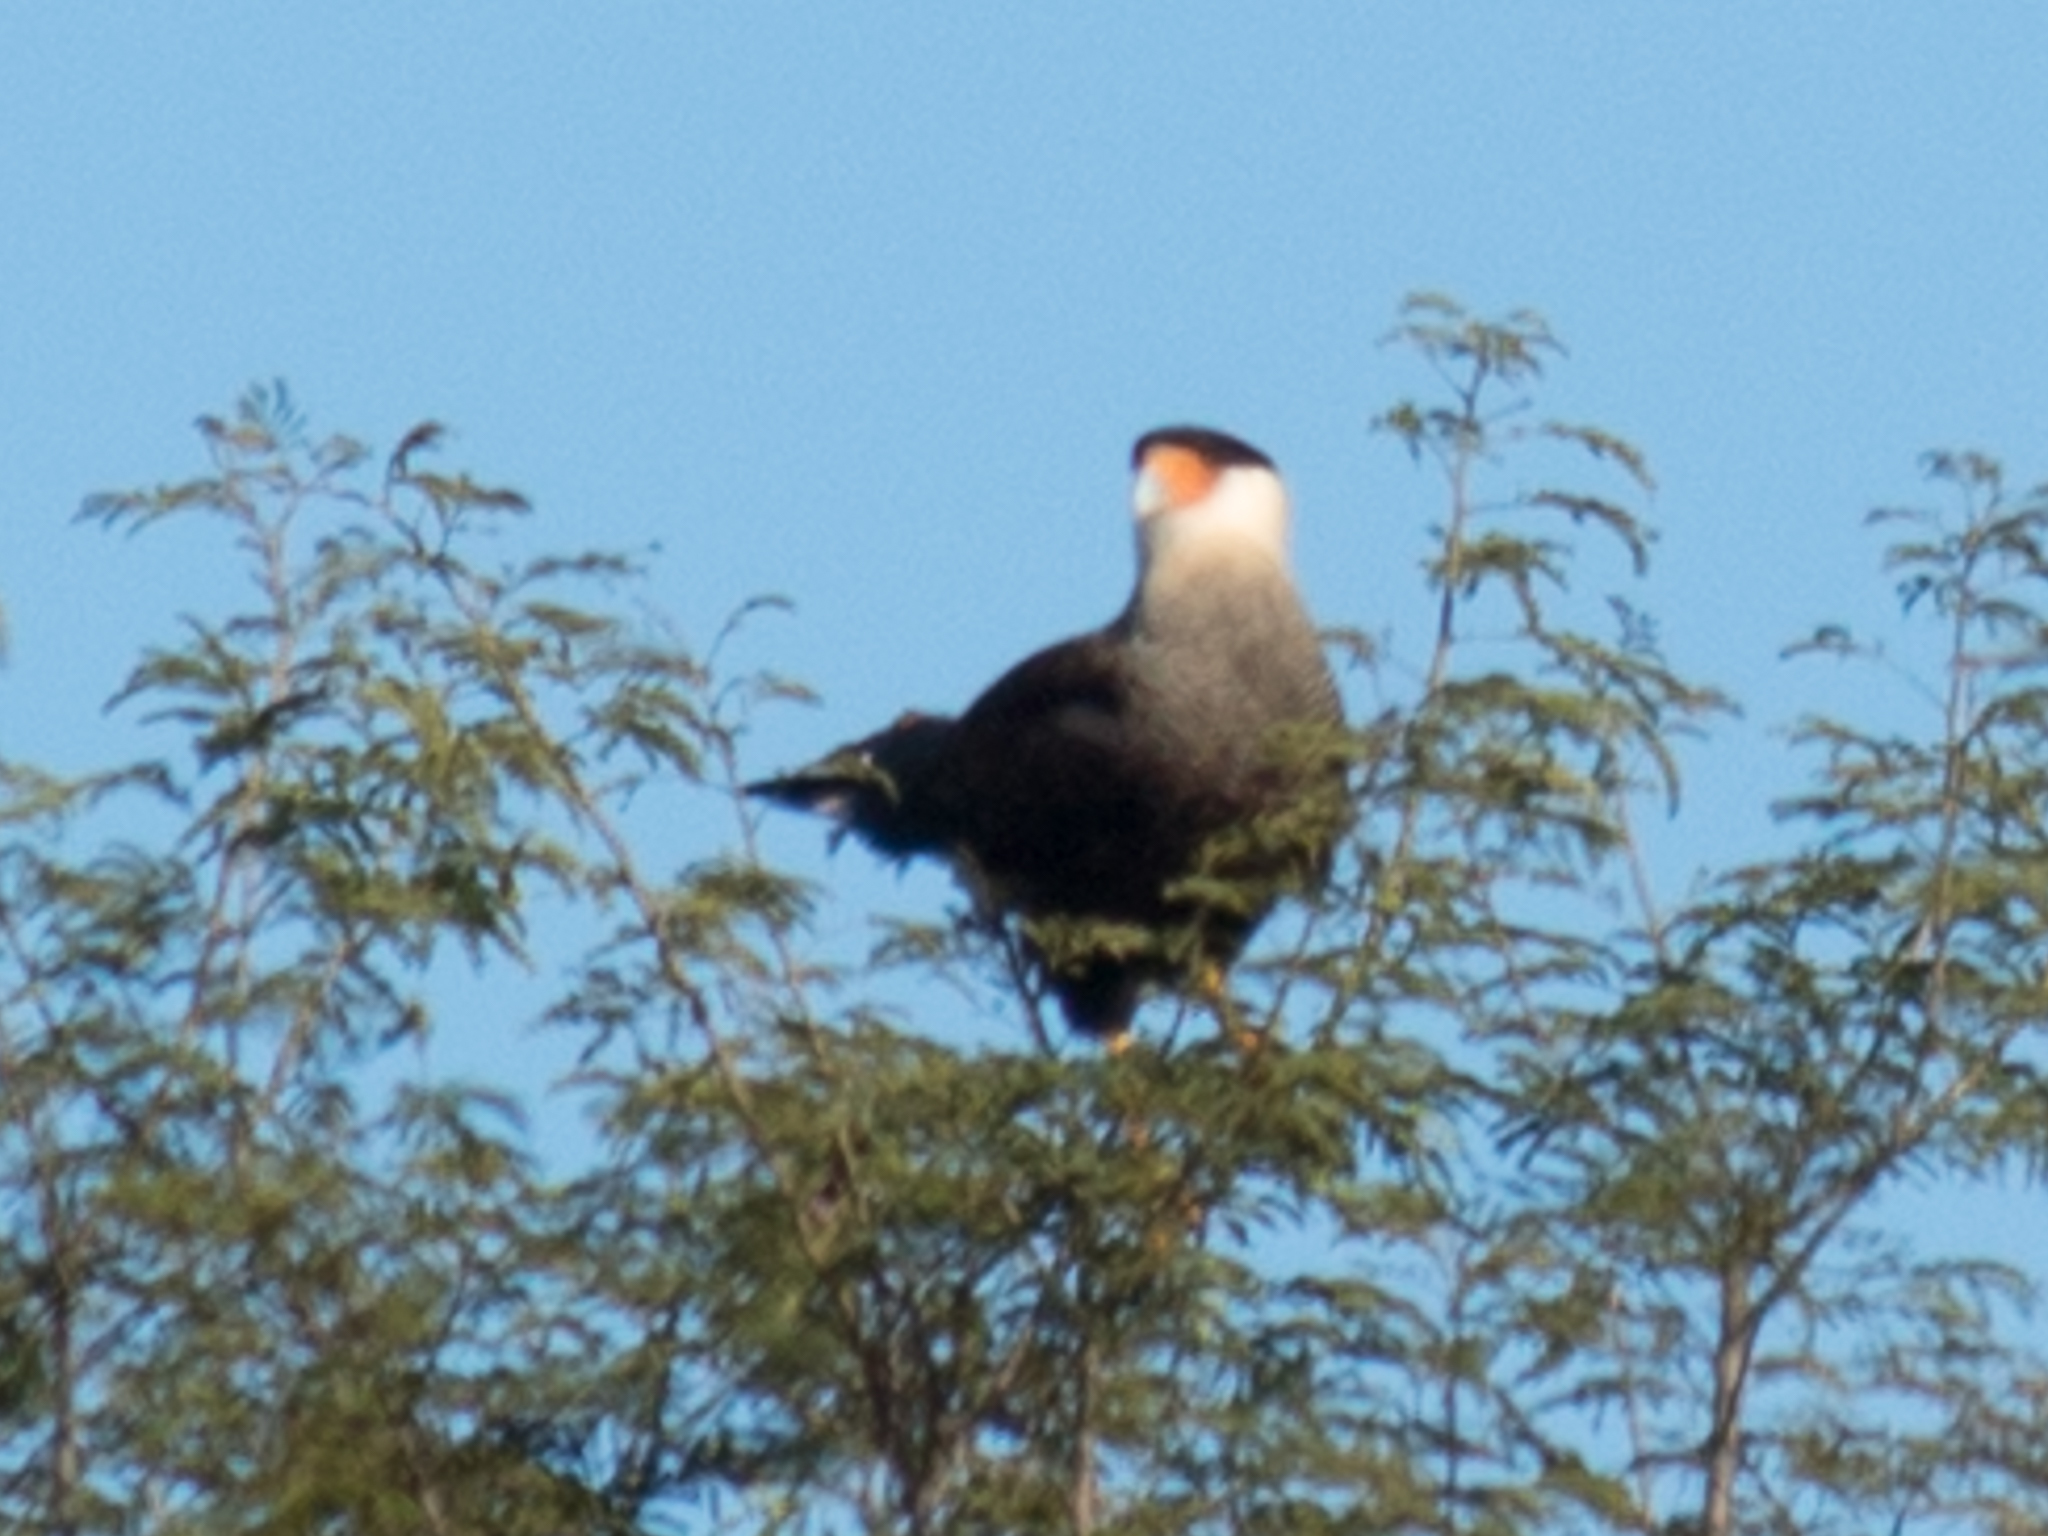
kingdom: Animalia
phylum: Chordata
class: Aves
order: Falconiformes
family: Falconidae
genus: Caracara
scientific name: Caracara plancus
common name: Southern caracara
